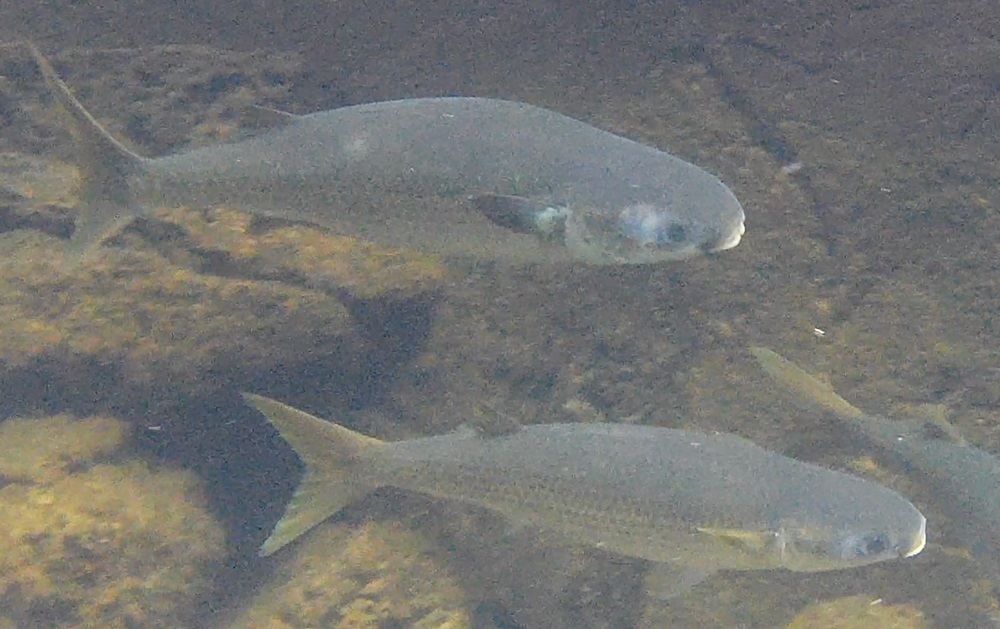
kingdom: Animalia
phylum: Chordata
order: Mugiliformes
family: Mugilidae
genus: Mugil
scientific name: Mugil cephalus
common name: Grey mullet
